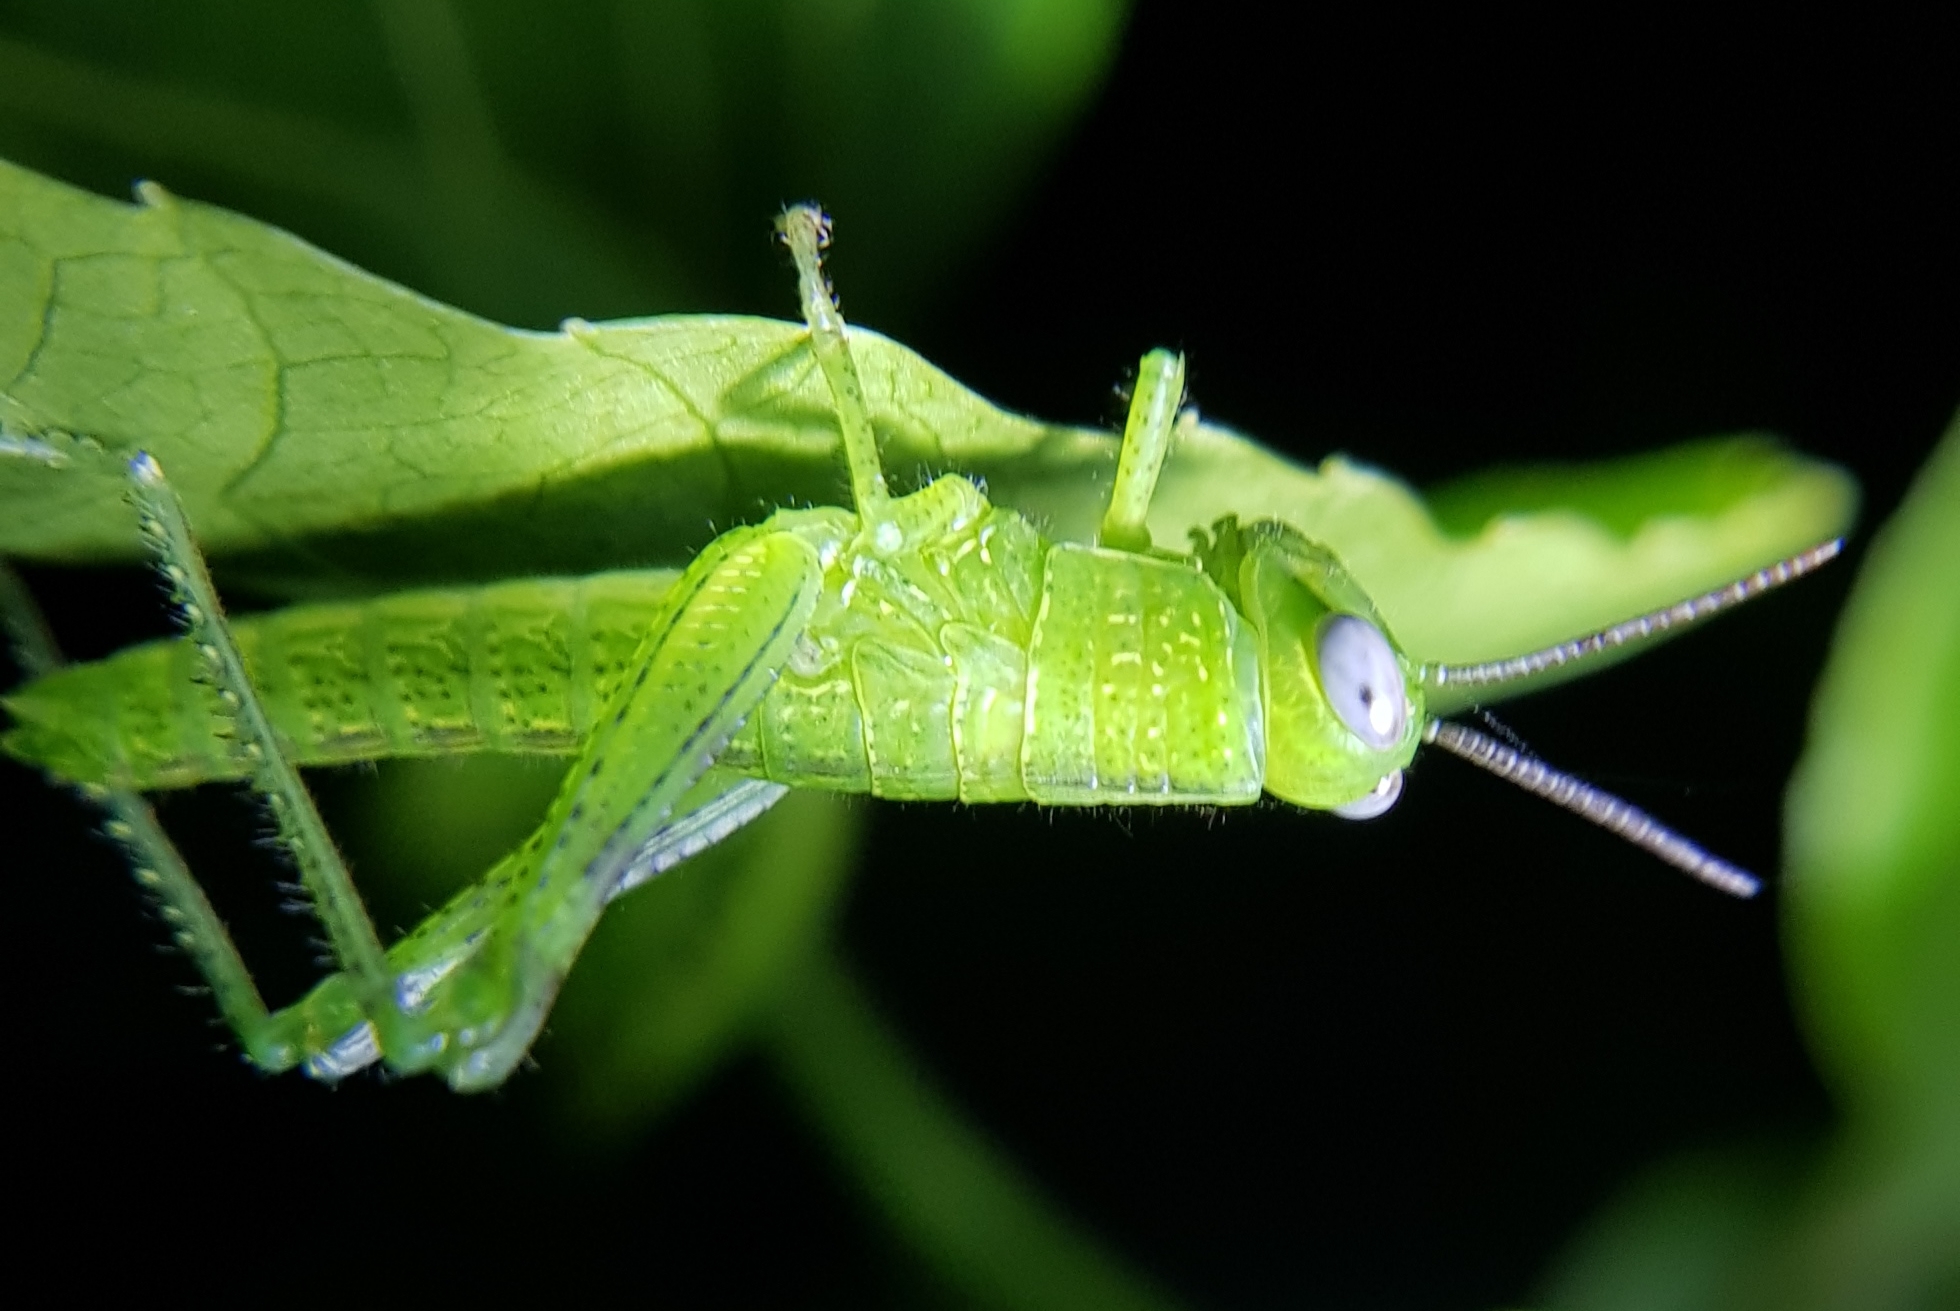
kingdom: Animalia
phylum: Arthropoda
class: Insecta
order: Orthoptera
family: Acrididae
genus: Valanga
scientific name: Valanga irregularis
